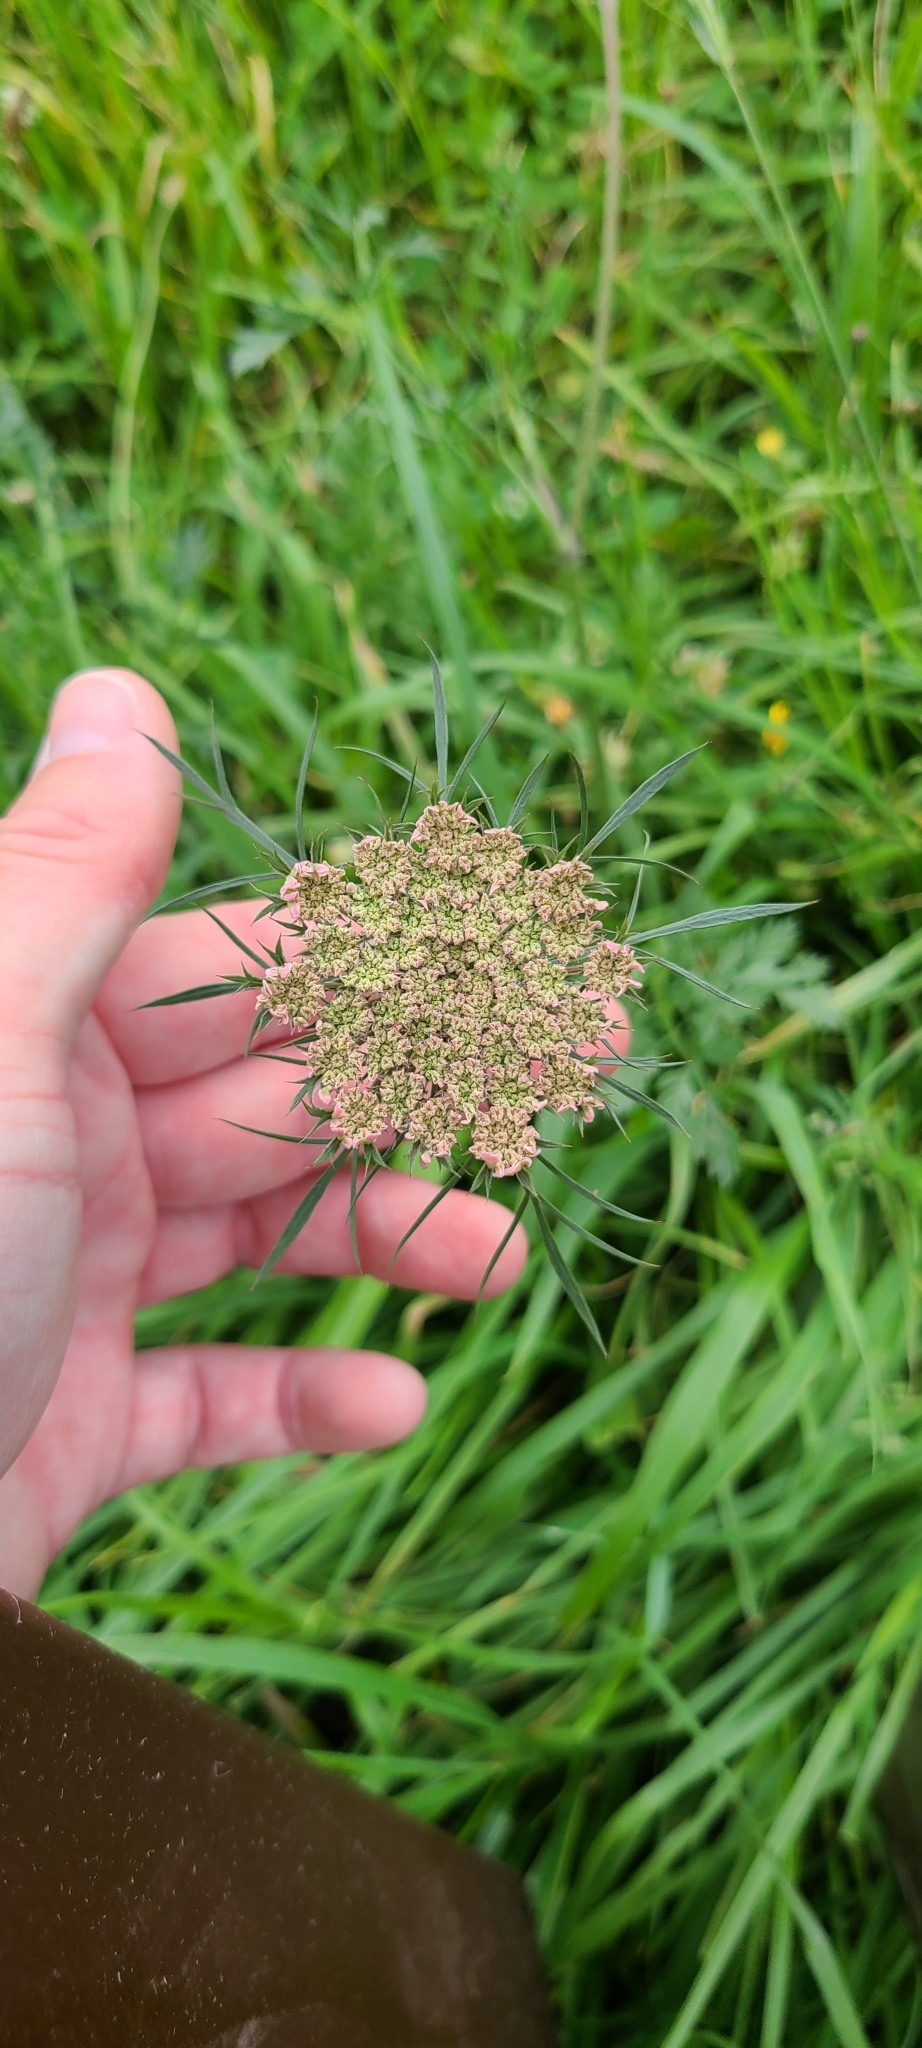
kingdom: Plantae
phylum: Tracheophyta
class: Magnoliopsida
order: Apiales
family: Apiaceae
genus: Daucus
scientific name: Daucus carota
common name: Wild carrot
